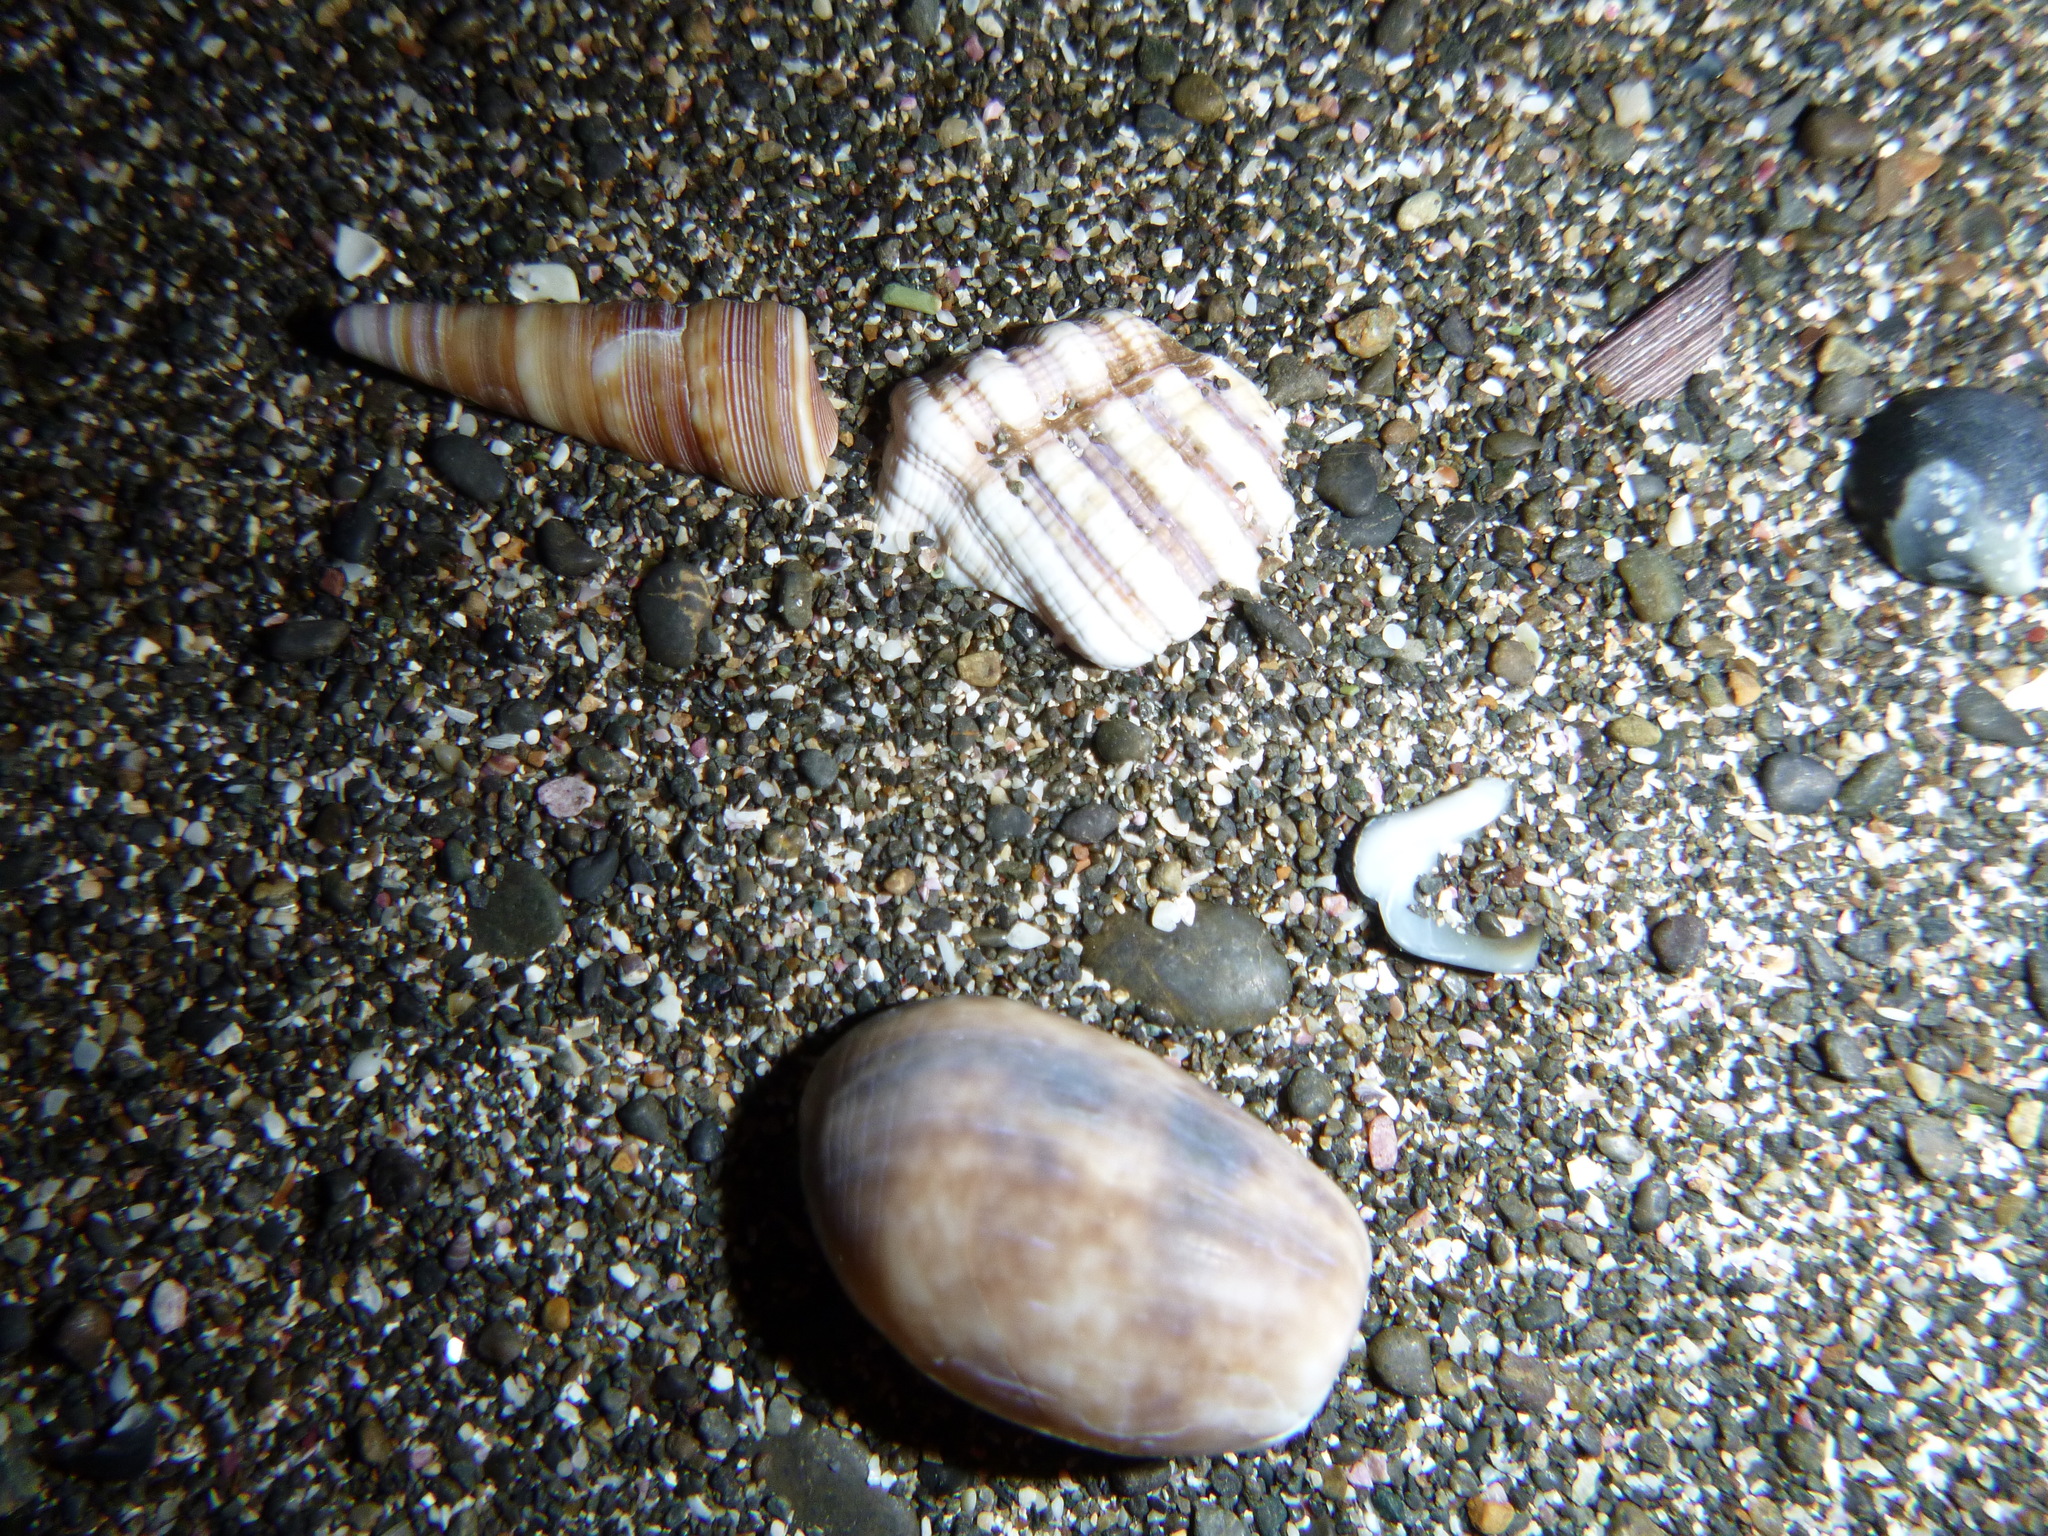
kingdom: Animalia
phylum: Mollusca
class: Gastropoda
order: Cephalaspidea
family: Bullidae
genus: Bulla
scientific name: Bulla quoyii
